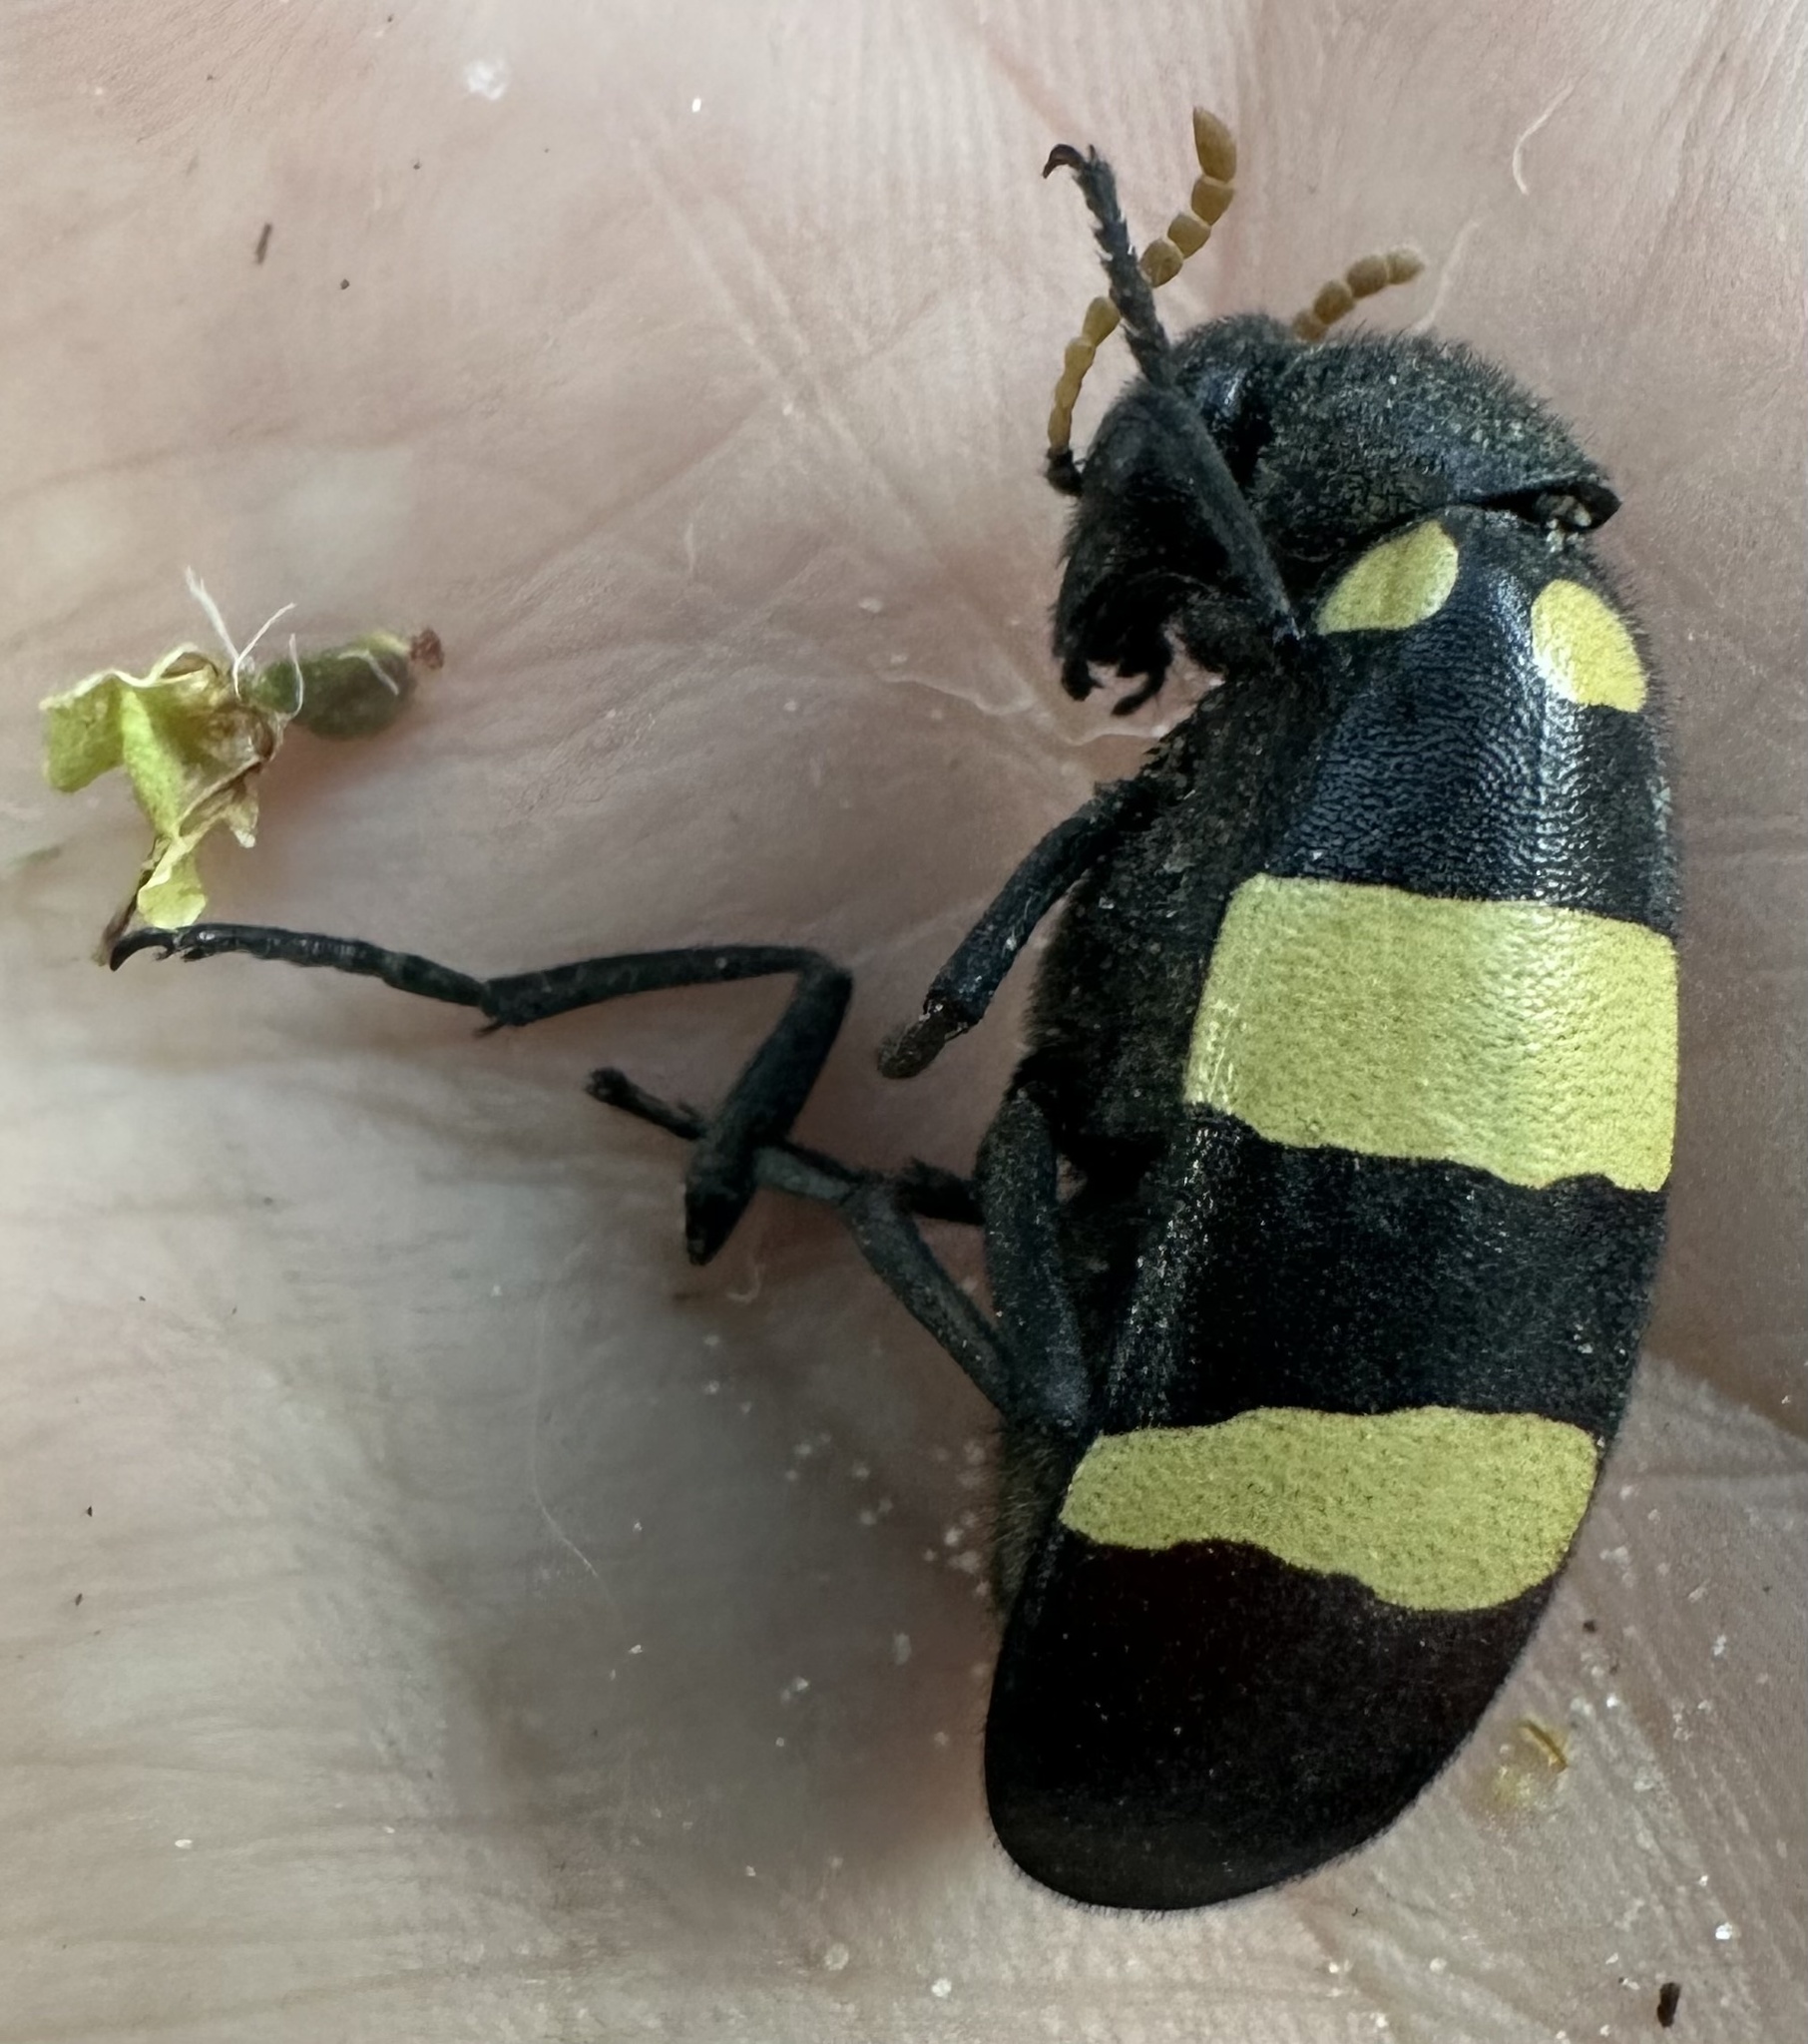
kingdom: Animalia
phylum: Arthropoda
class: Insecta
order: Coleoptera
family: Meloidae
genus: Hycleus
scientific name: Hycleus
